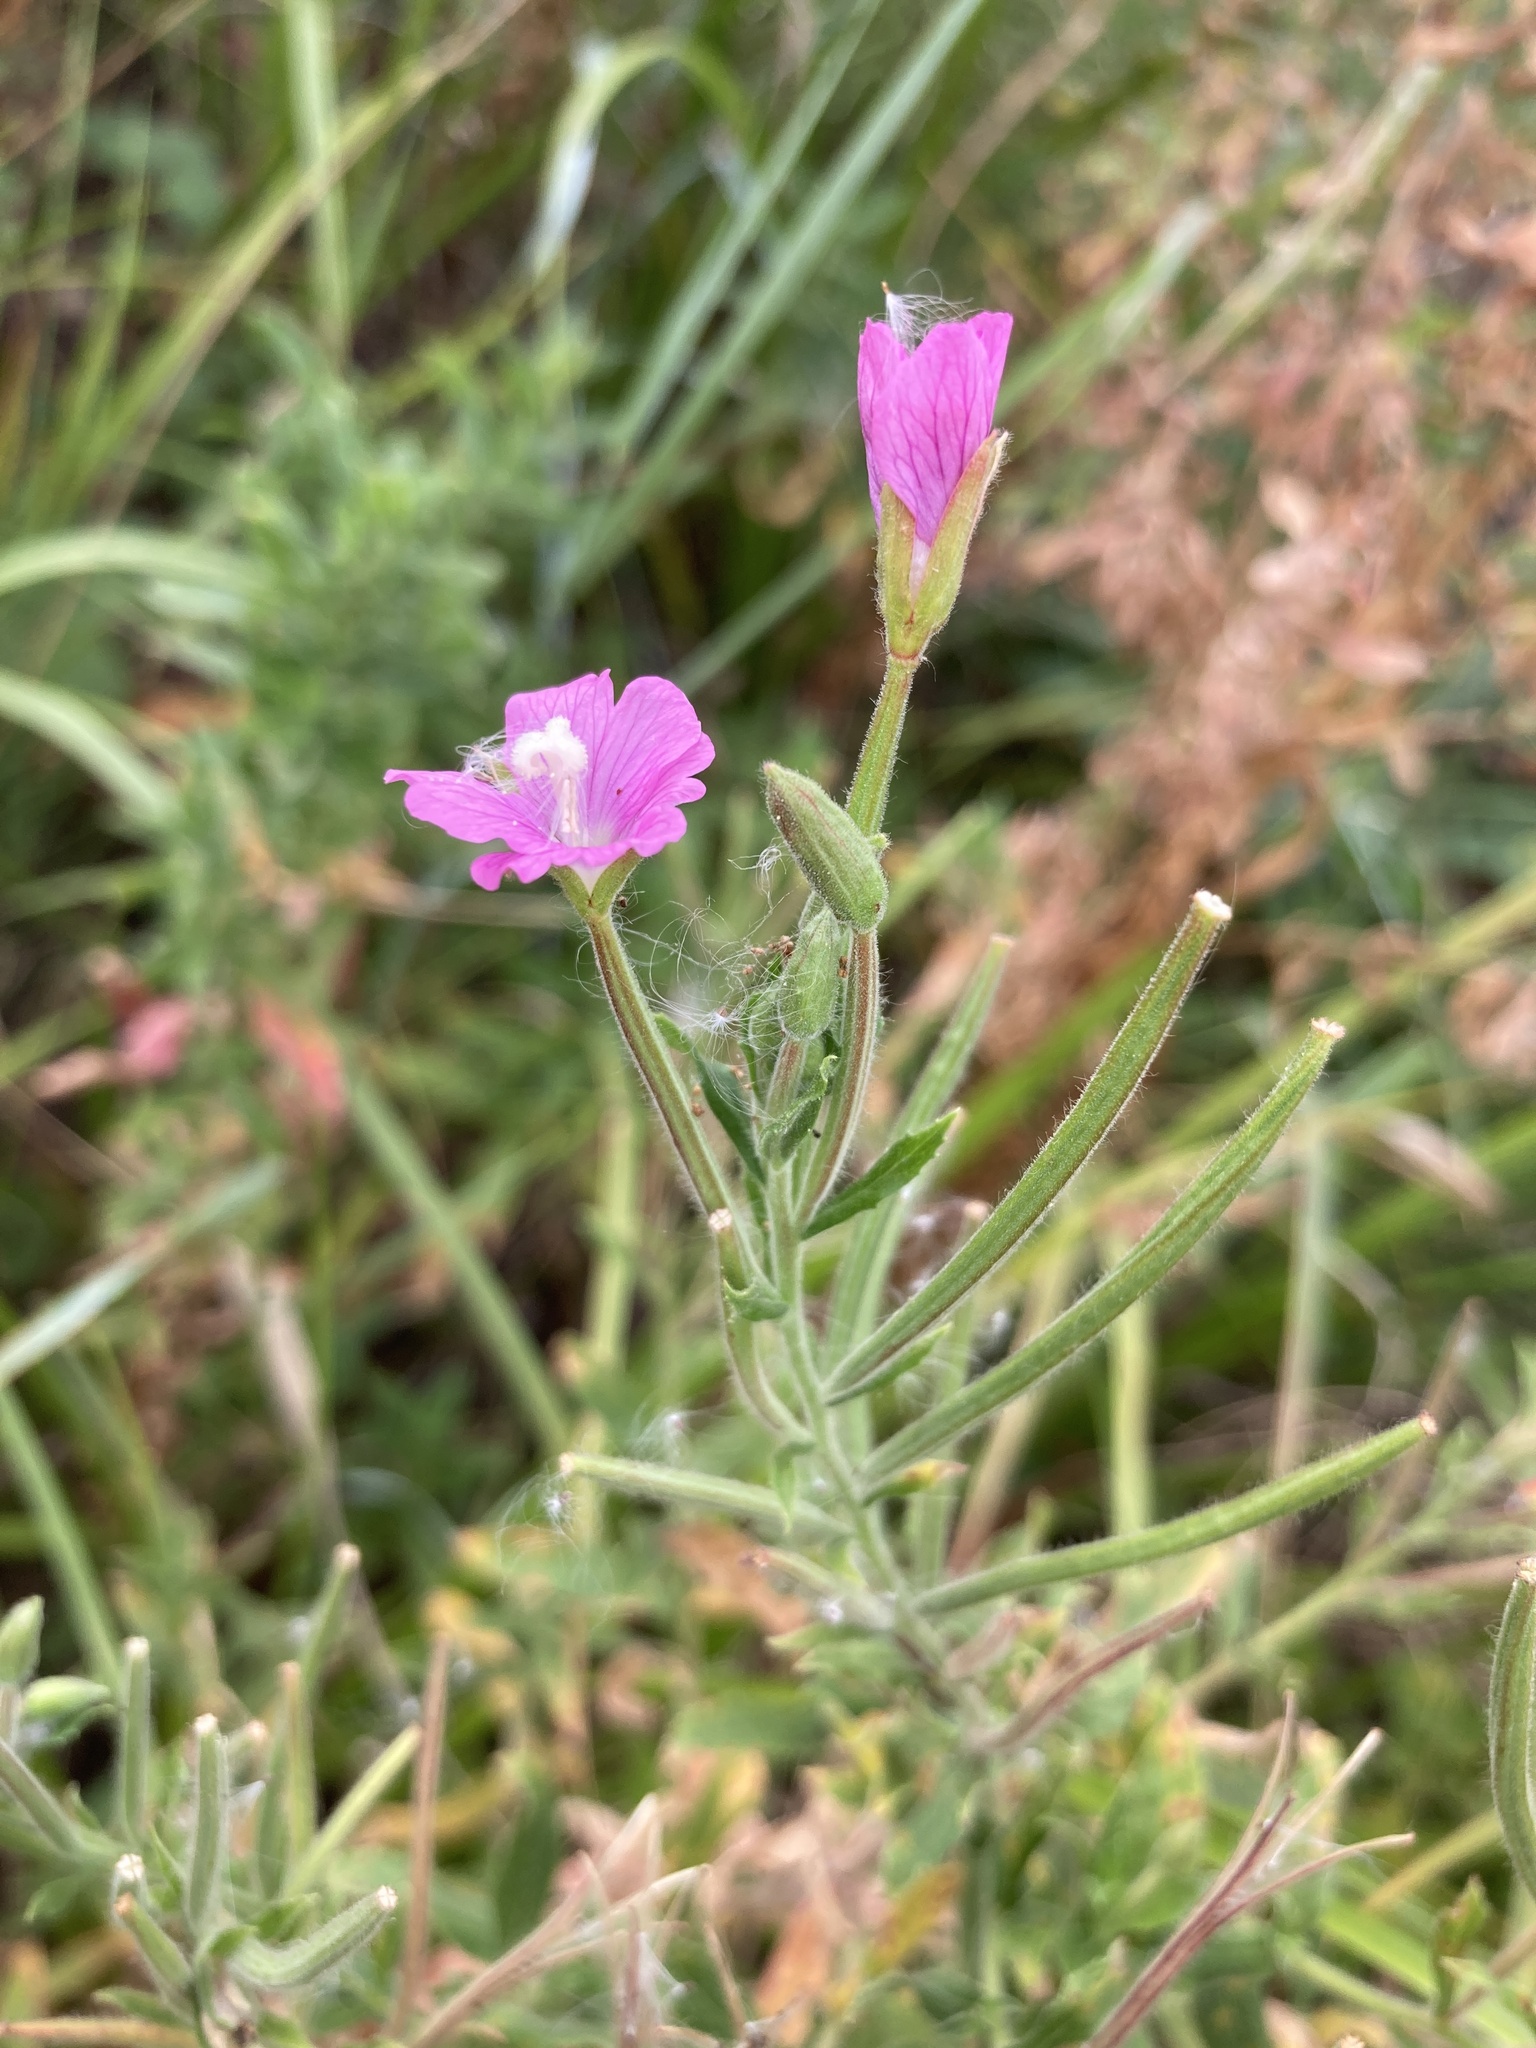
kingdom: Plantae
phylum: Tracheophyta
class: Magnoliopsida
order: Myrtales
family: Onagraceae
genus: Epilobium
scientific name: Epilobium hirsutum
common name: Great willowherb
